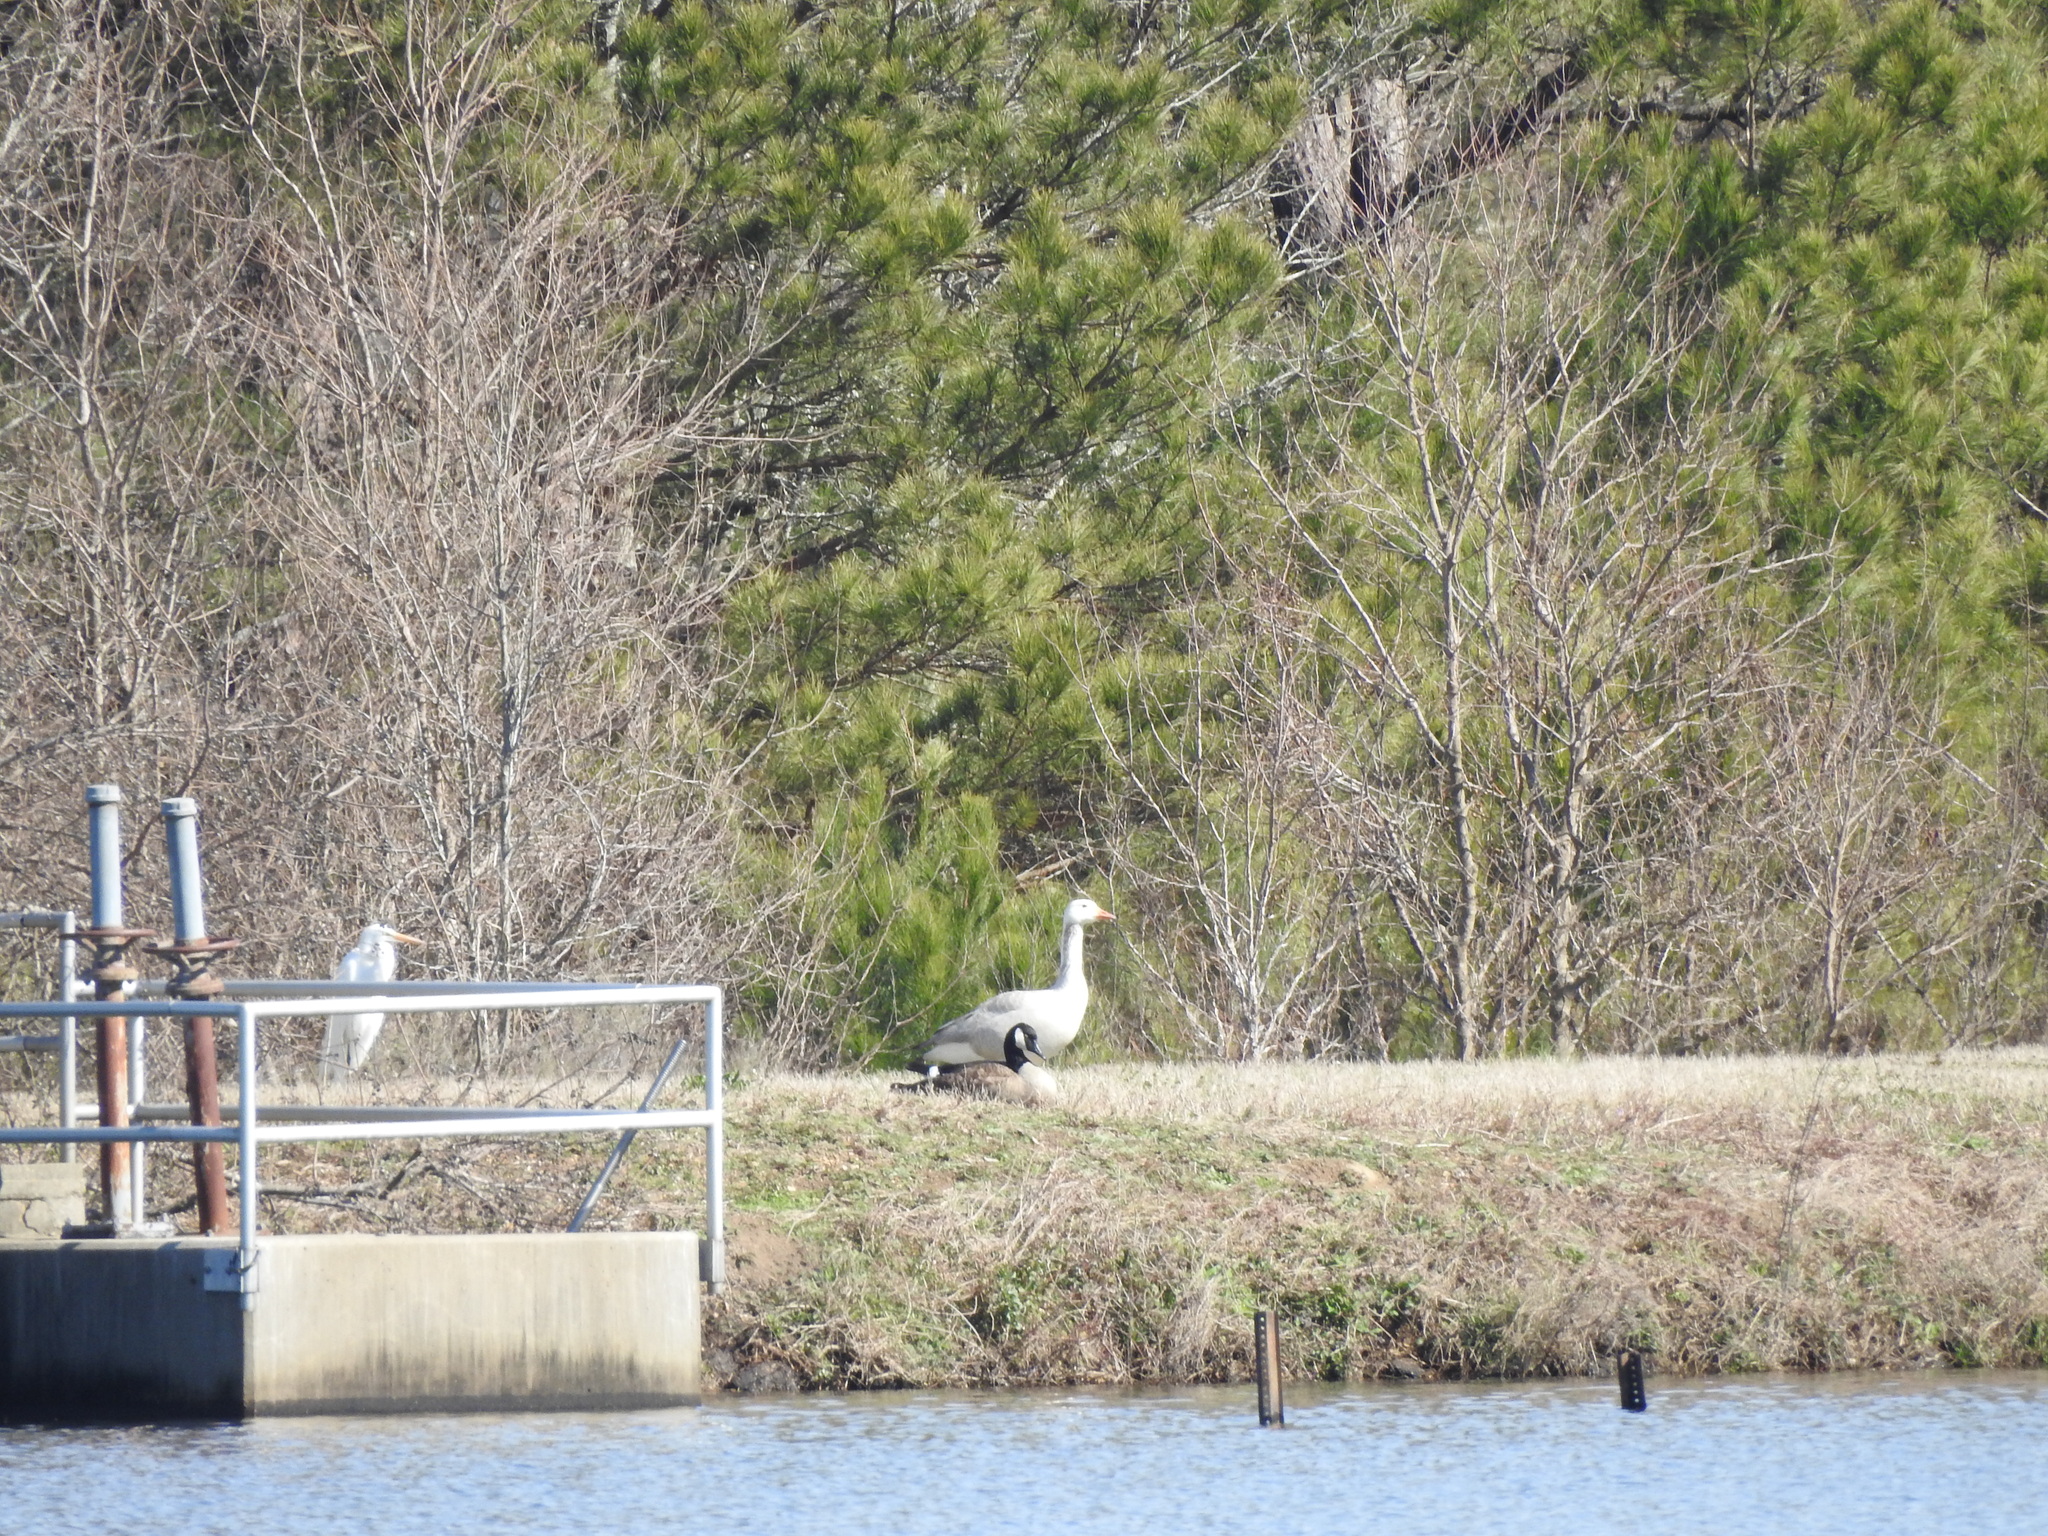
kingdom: Animalia
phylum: Chordata
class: Aves
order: Anseriformes
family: Anatidae
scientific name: Anatidae
